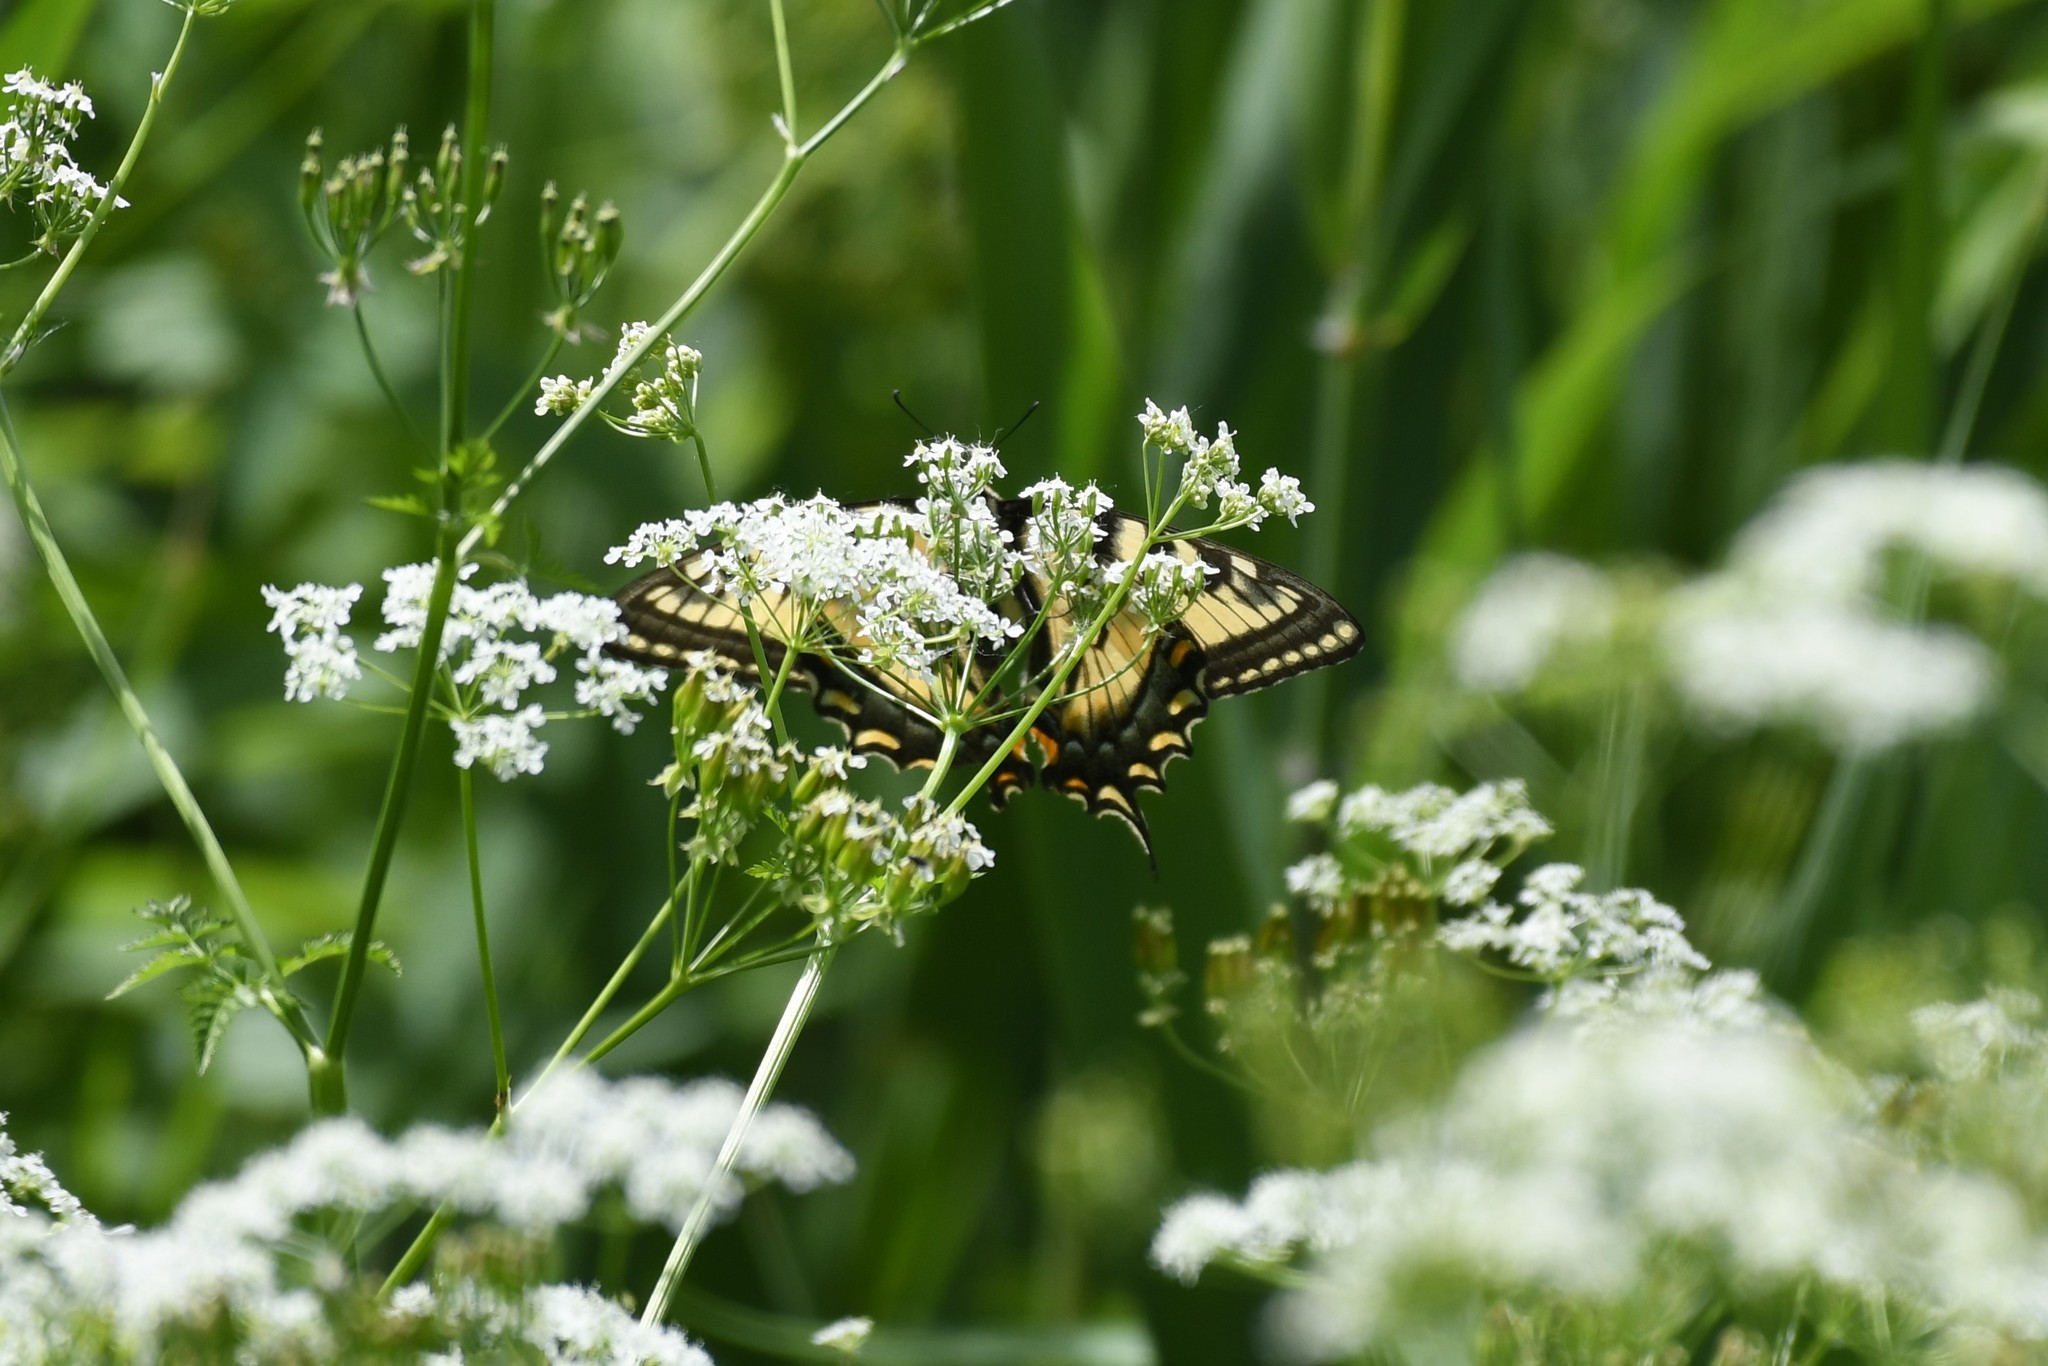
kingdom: Animalia
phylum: Arthropoda
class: Insecta
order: Lepidoptera
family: Papilionidae
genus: Papilio
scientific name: Papilio canadensis
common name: Canadian tiger swallowtail
